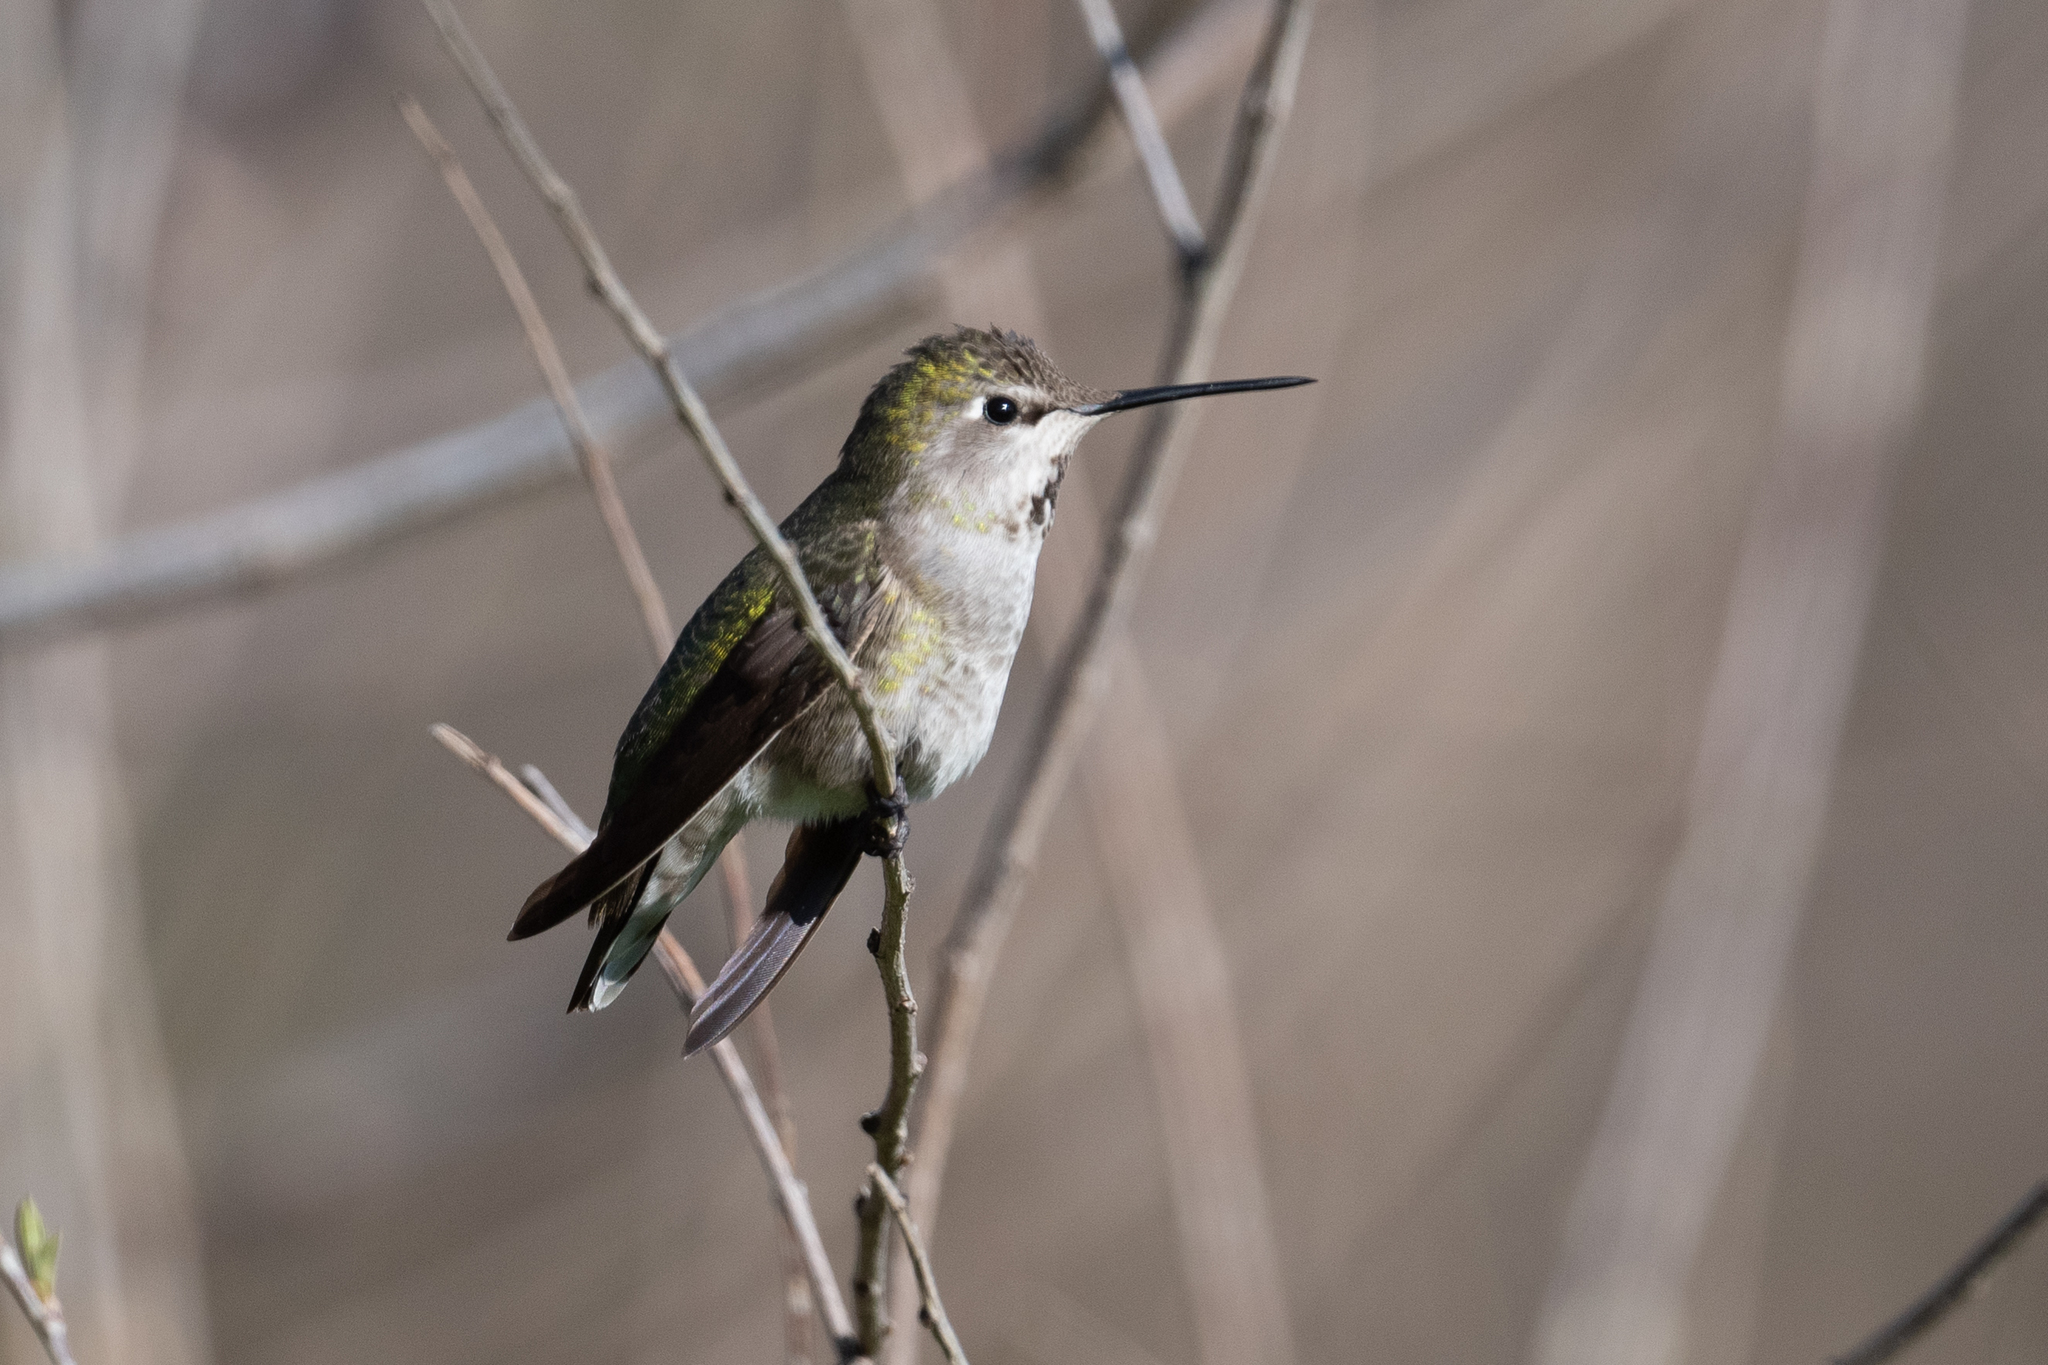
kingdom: Animalia
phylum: Chordata
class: Aves
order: Apodiformes
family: Trochilidae
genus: Calypte
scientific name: Calypte anna
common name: Anna's hummingbird
